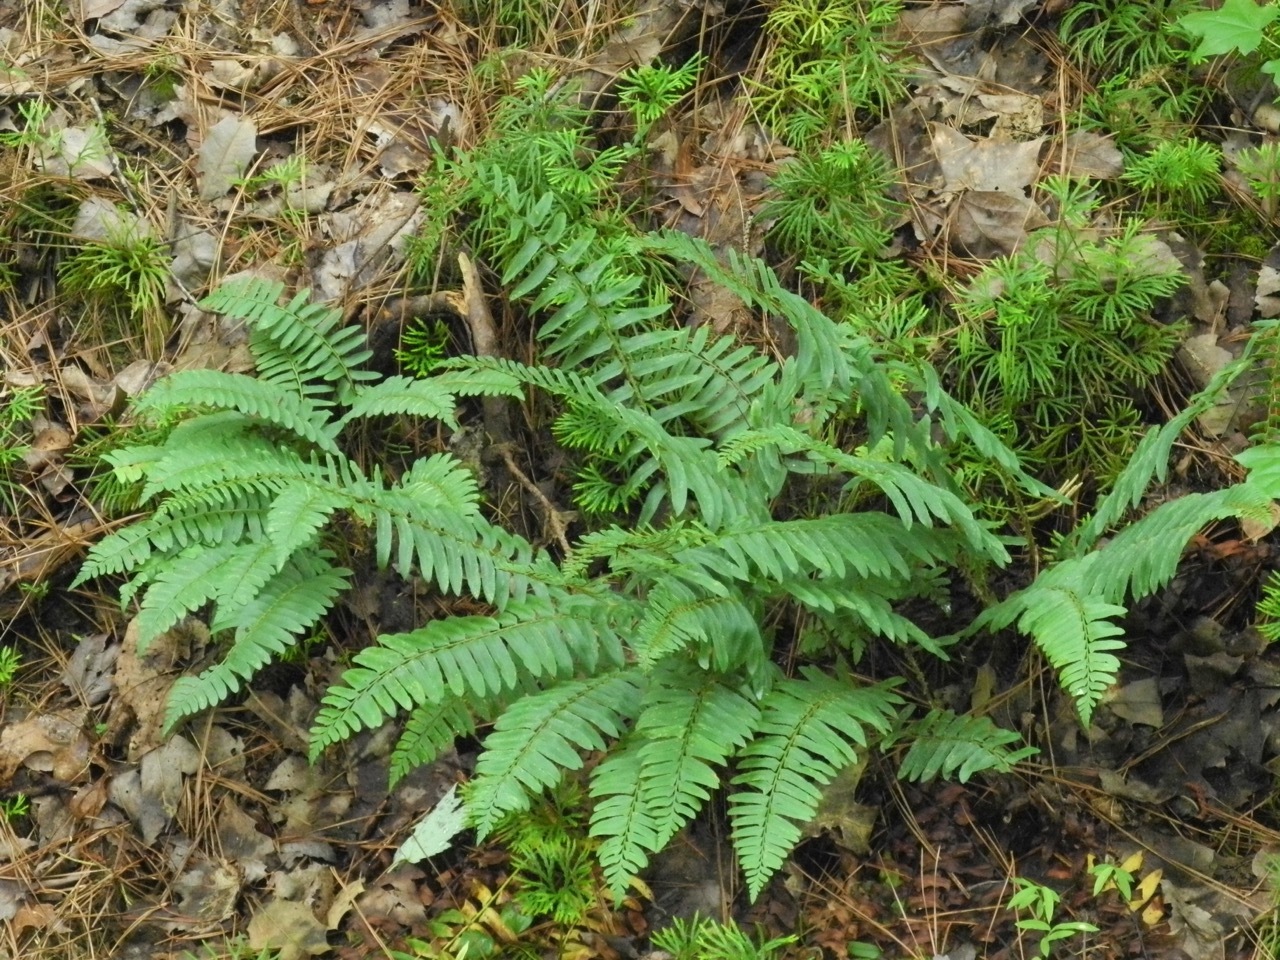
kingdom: Plantae
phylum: Tracheophyta
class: Lycopodiopsida
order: Lycopodiales
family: Lycopodiaceae
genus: Diphasiastrum
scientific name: Diphasiastrum digitatum
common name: Southern running-pine
